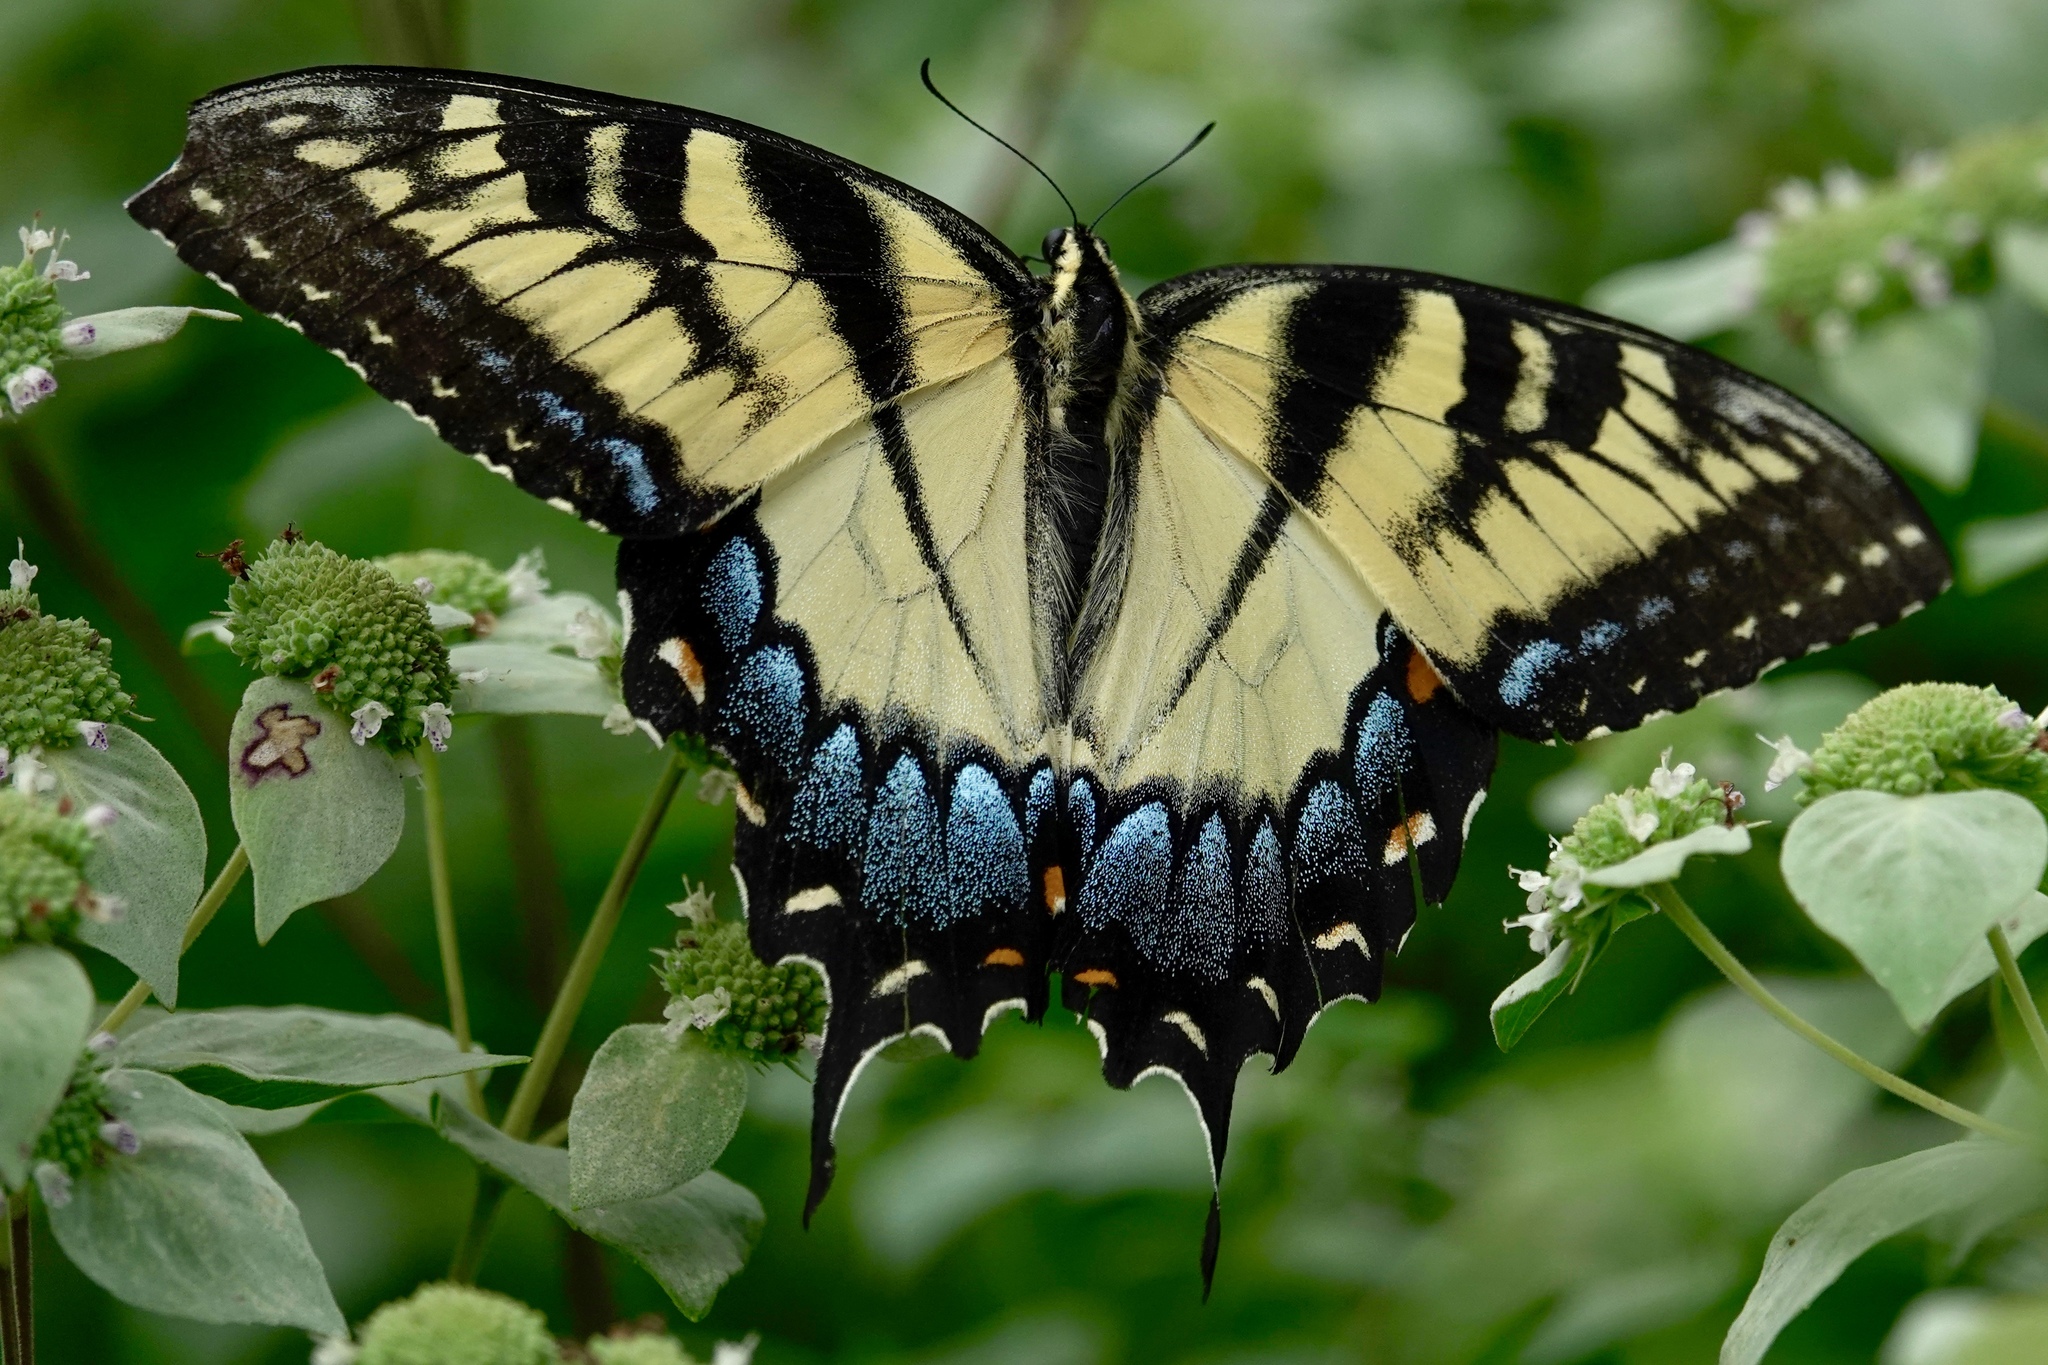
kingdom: Animalia
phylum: Arthropoda
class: Insecta
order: Lepidoptera
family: Papilionidae
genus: Papilio
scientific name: Papilio glaucus
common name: Tiger swallowtail
